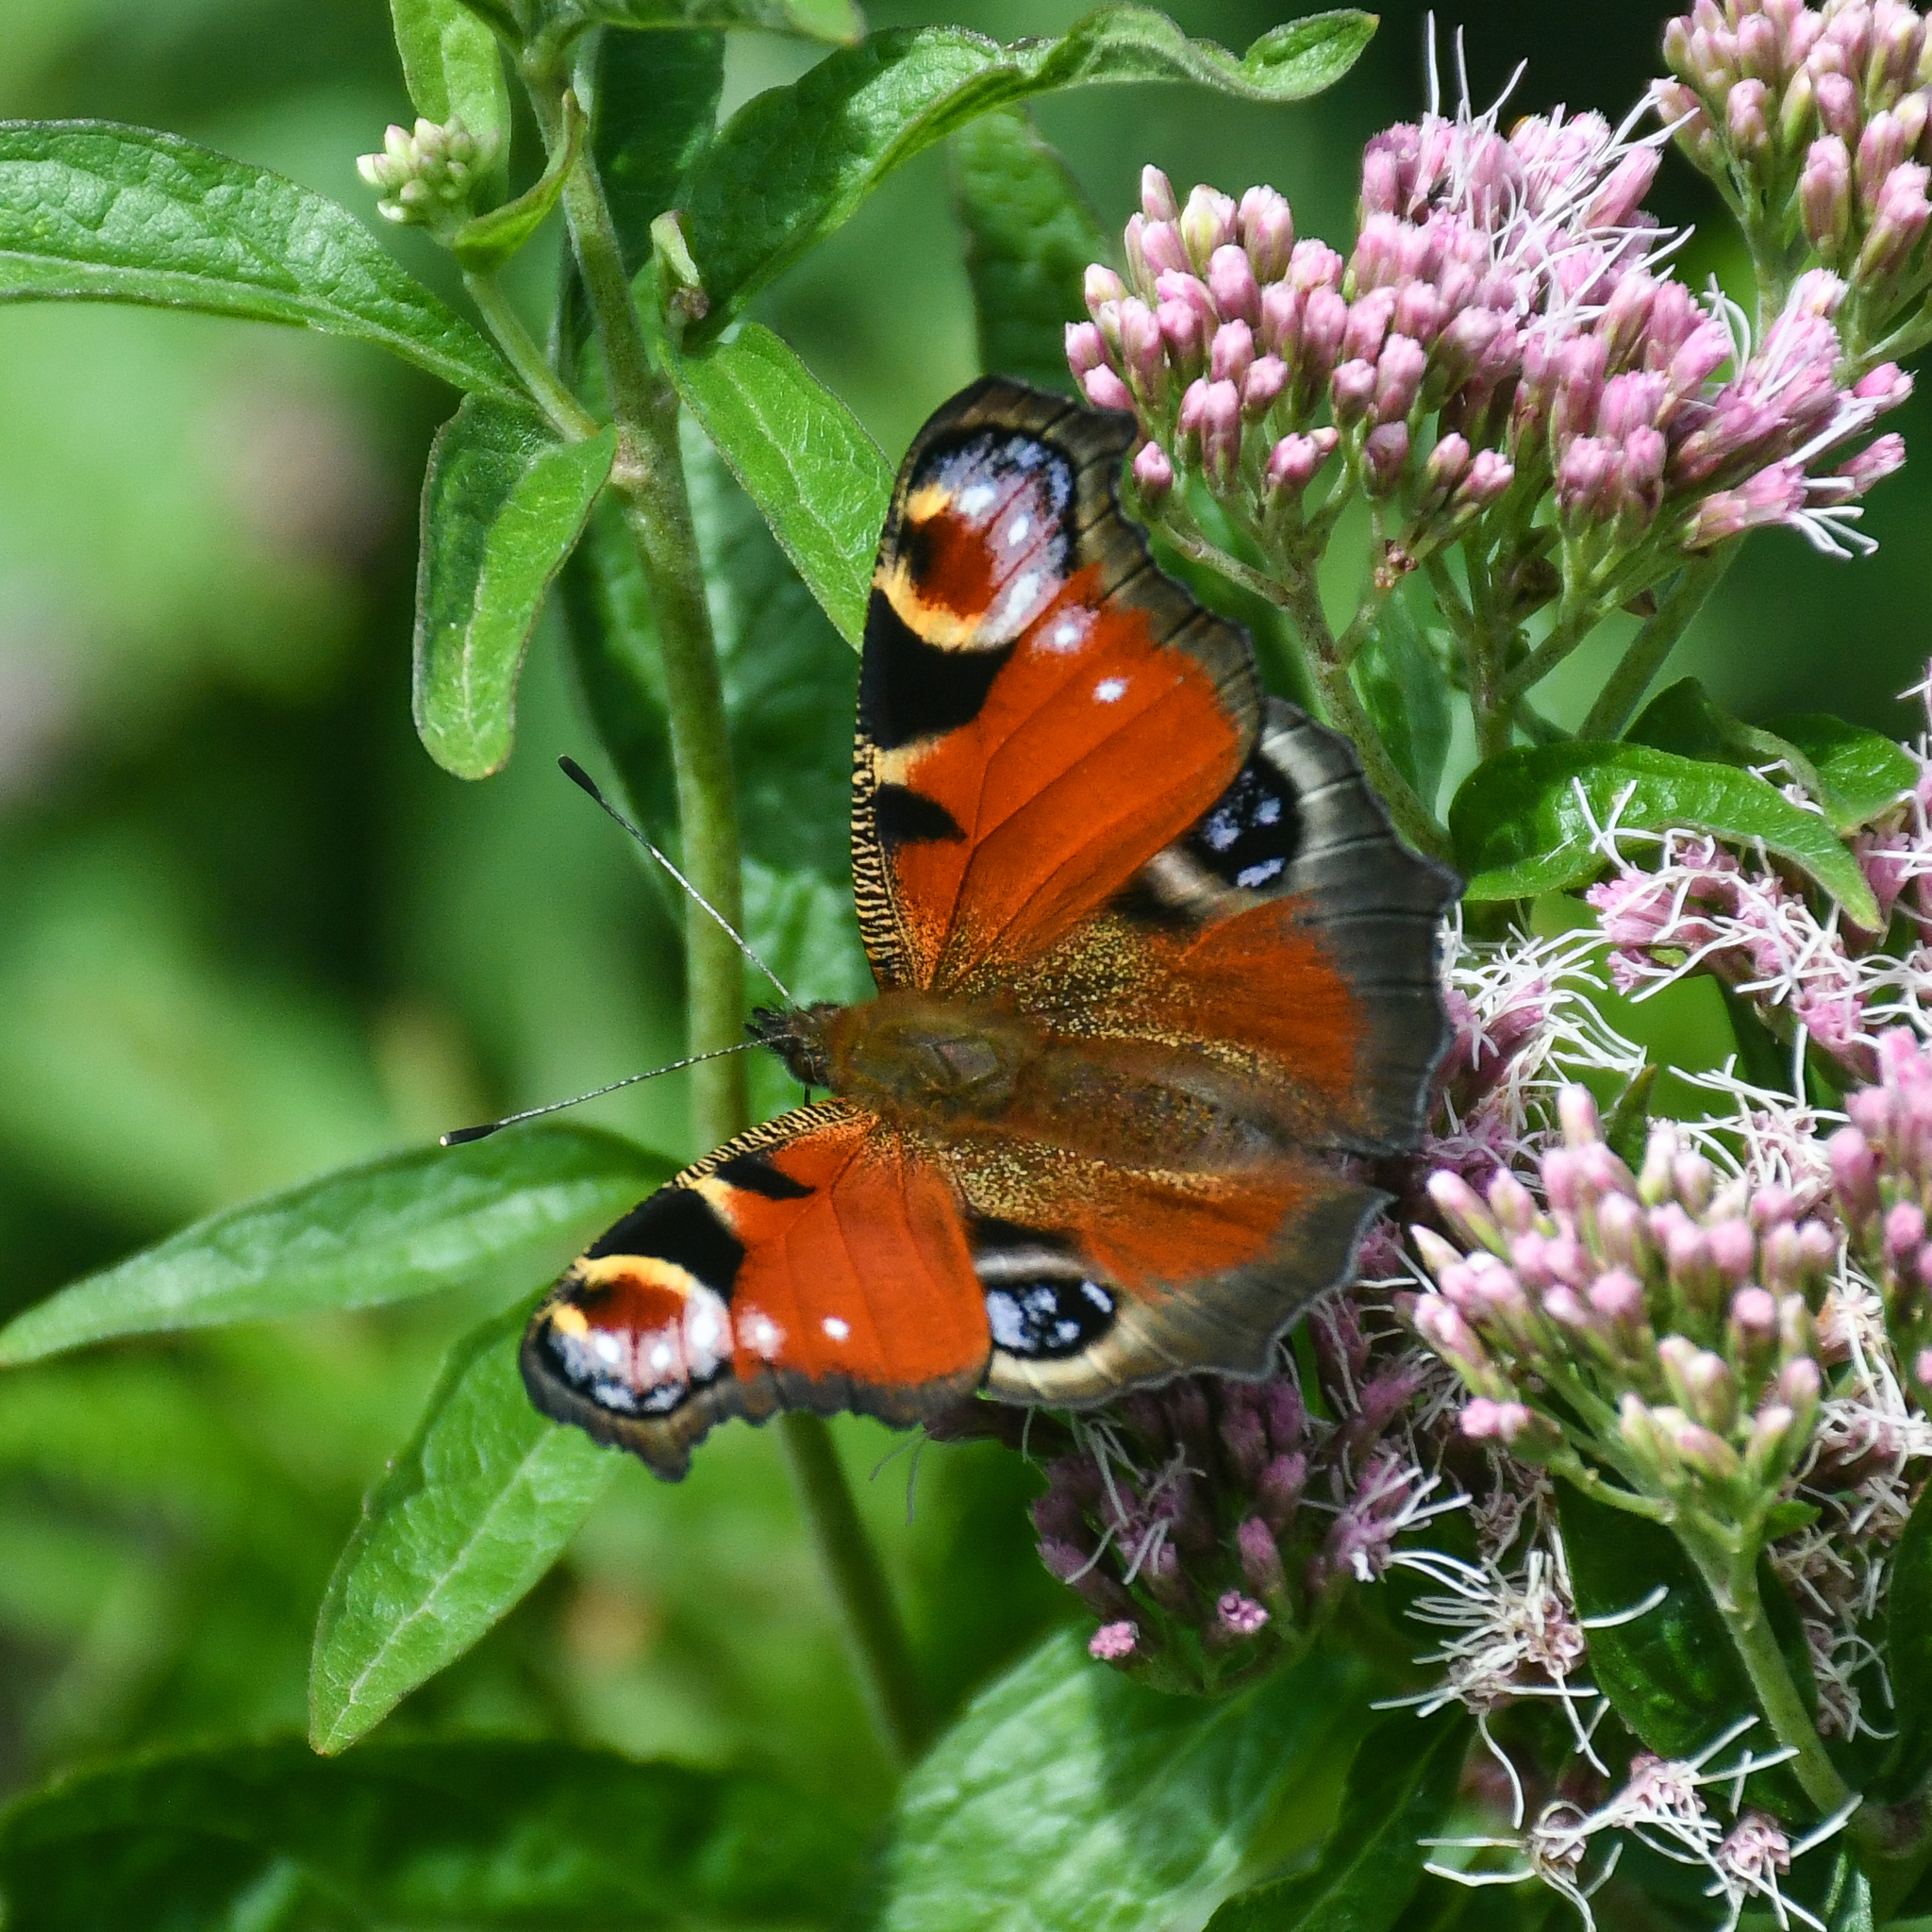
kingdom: Animalia
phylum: Arthropoda
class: Insecta
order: Lepidoptera
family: Nymphalidae
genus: Aglais
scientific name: Aglais io
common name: Peacock
